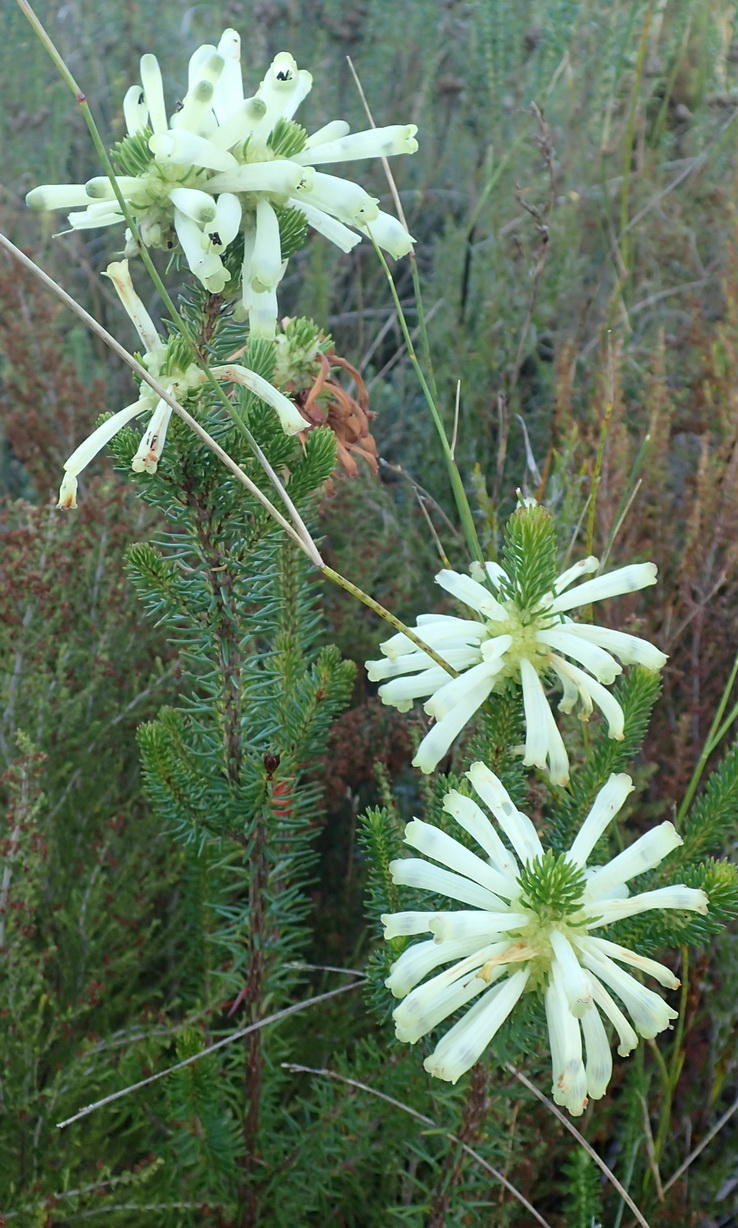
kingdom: Plantae
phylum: Tracheophyta
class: Magnoliopsida
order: Ericales
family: Ericaceae
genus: Erica
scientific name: Erica sessiliflora
